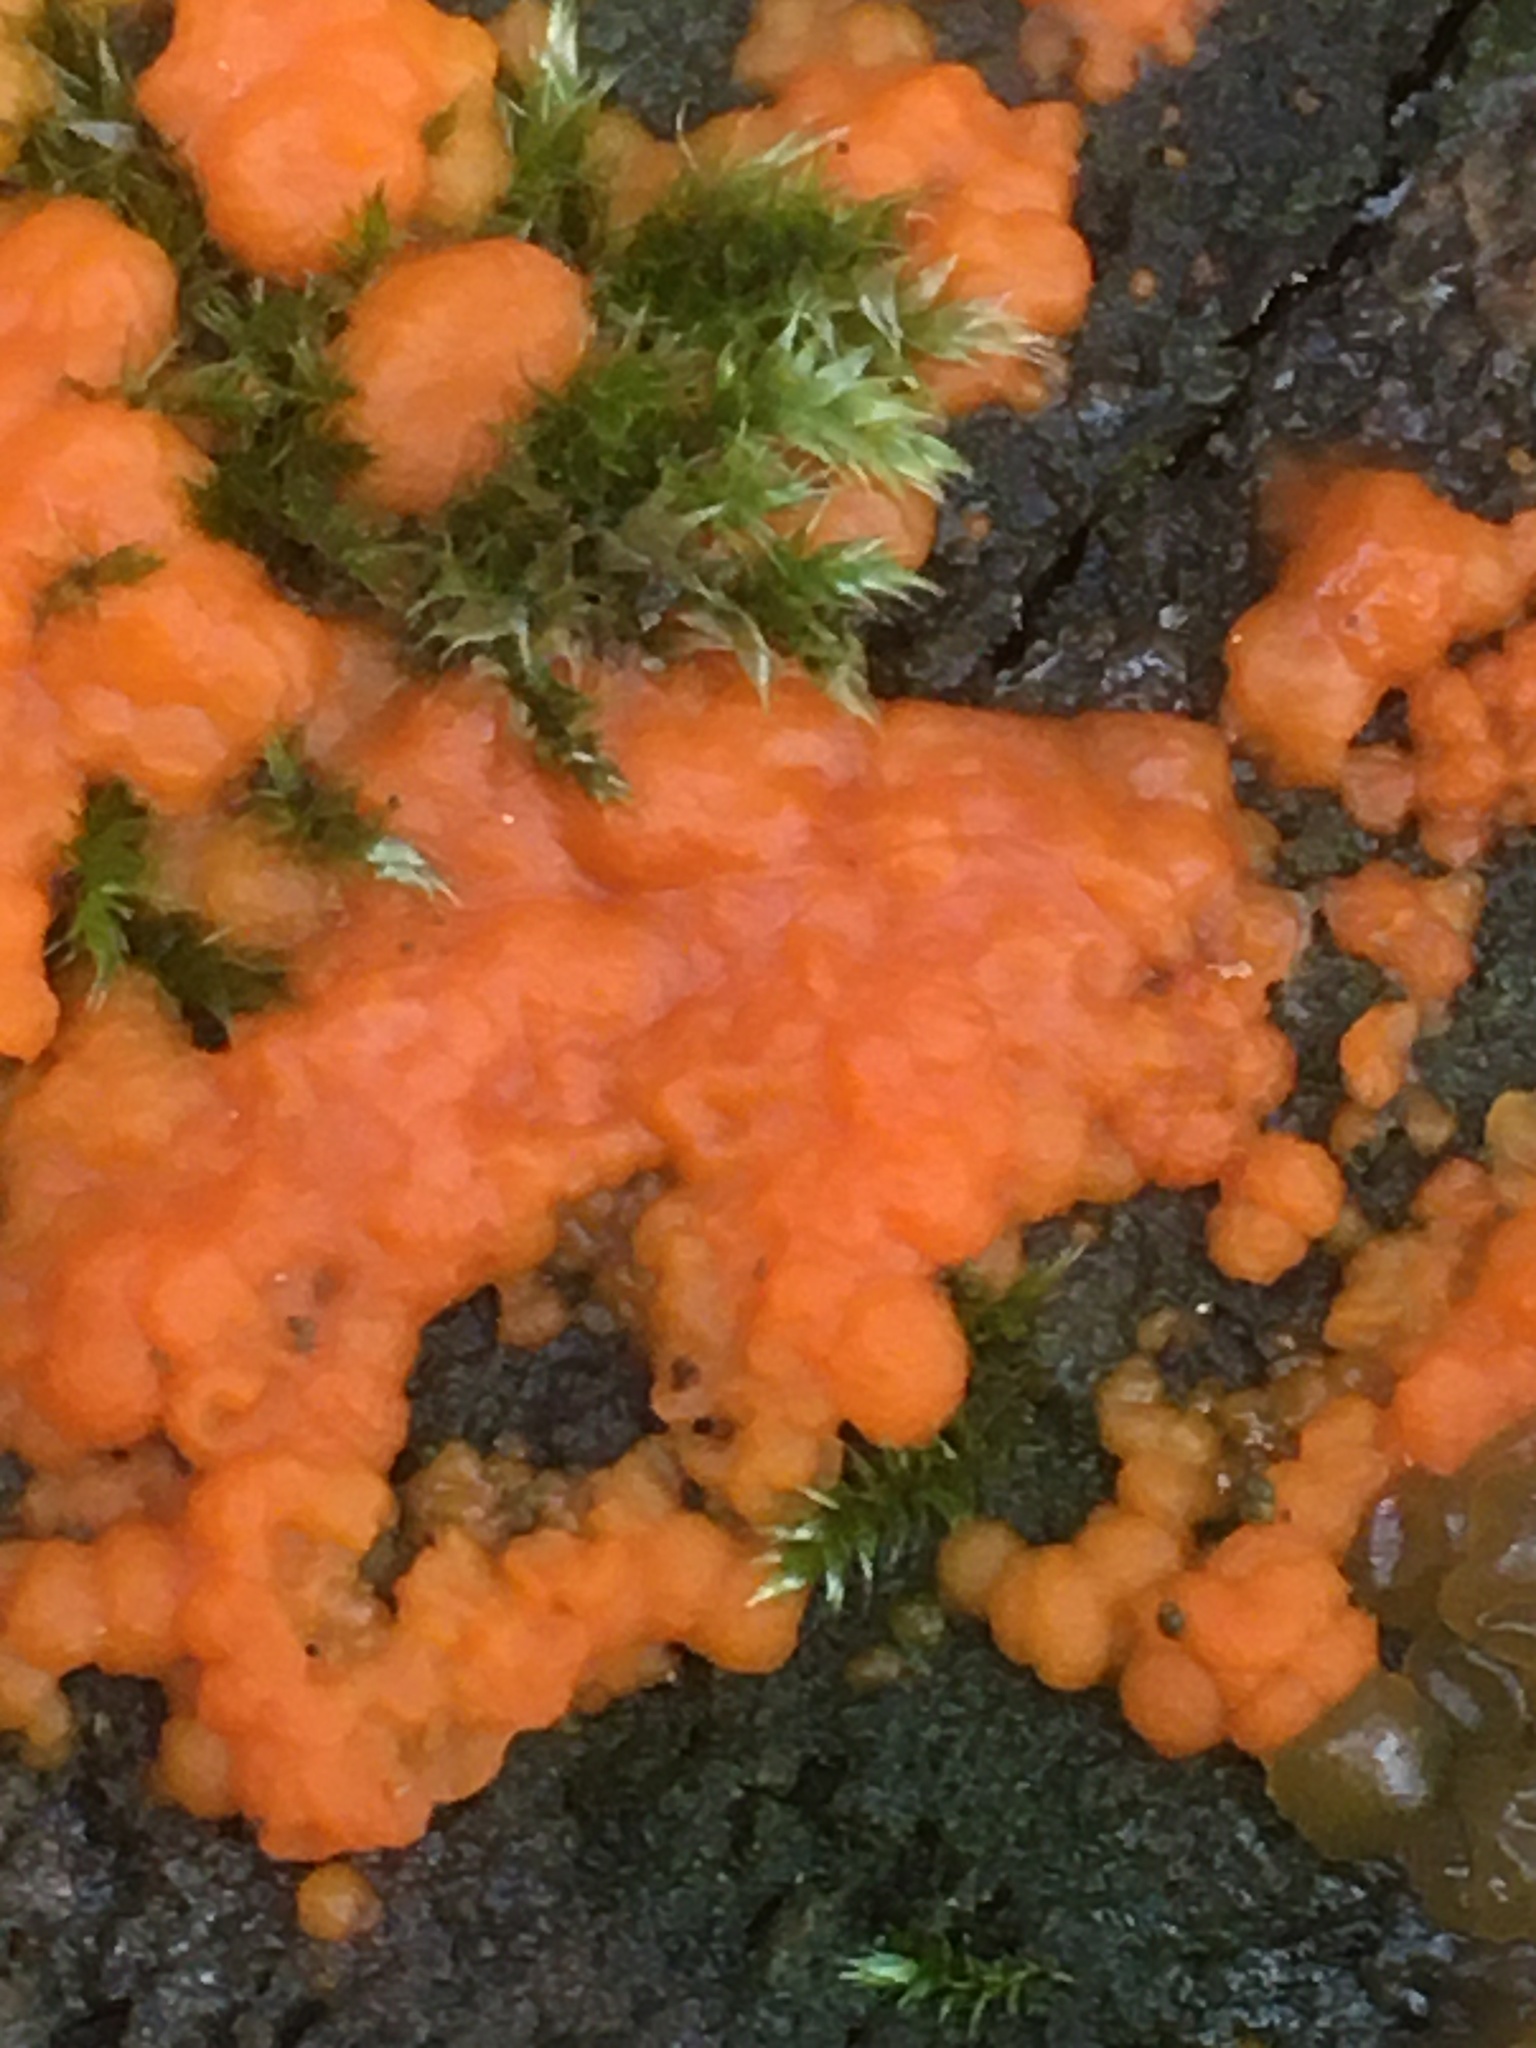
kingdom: Fungi
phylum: Basidiomycota
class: Dacrymycetes
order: Dacrymycetales
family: Dacrymycetaceae
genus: Dacrymyces
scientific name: Dacrymyces stillatus
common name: Common jelly spot
